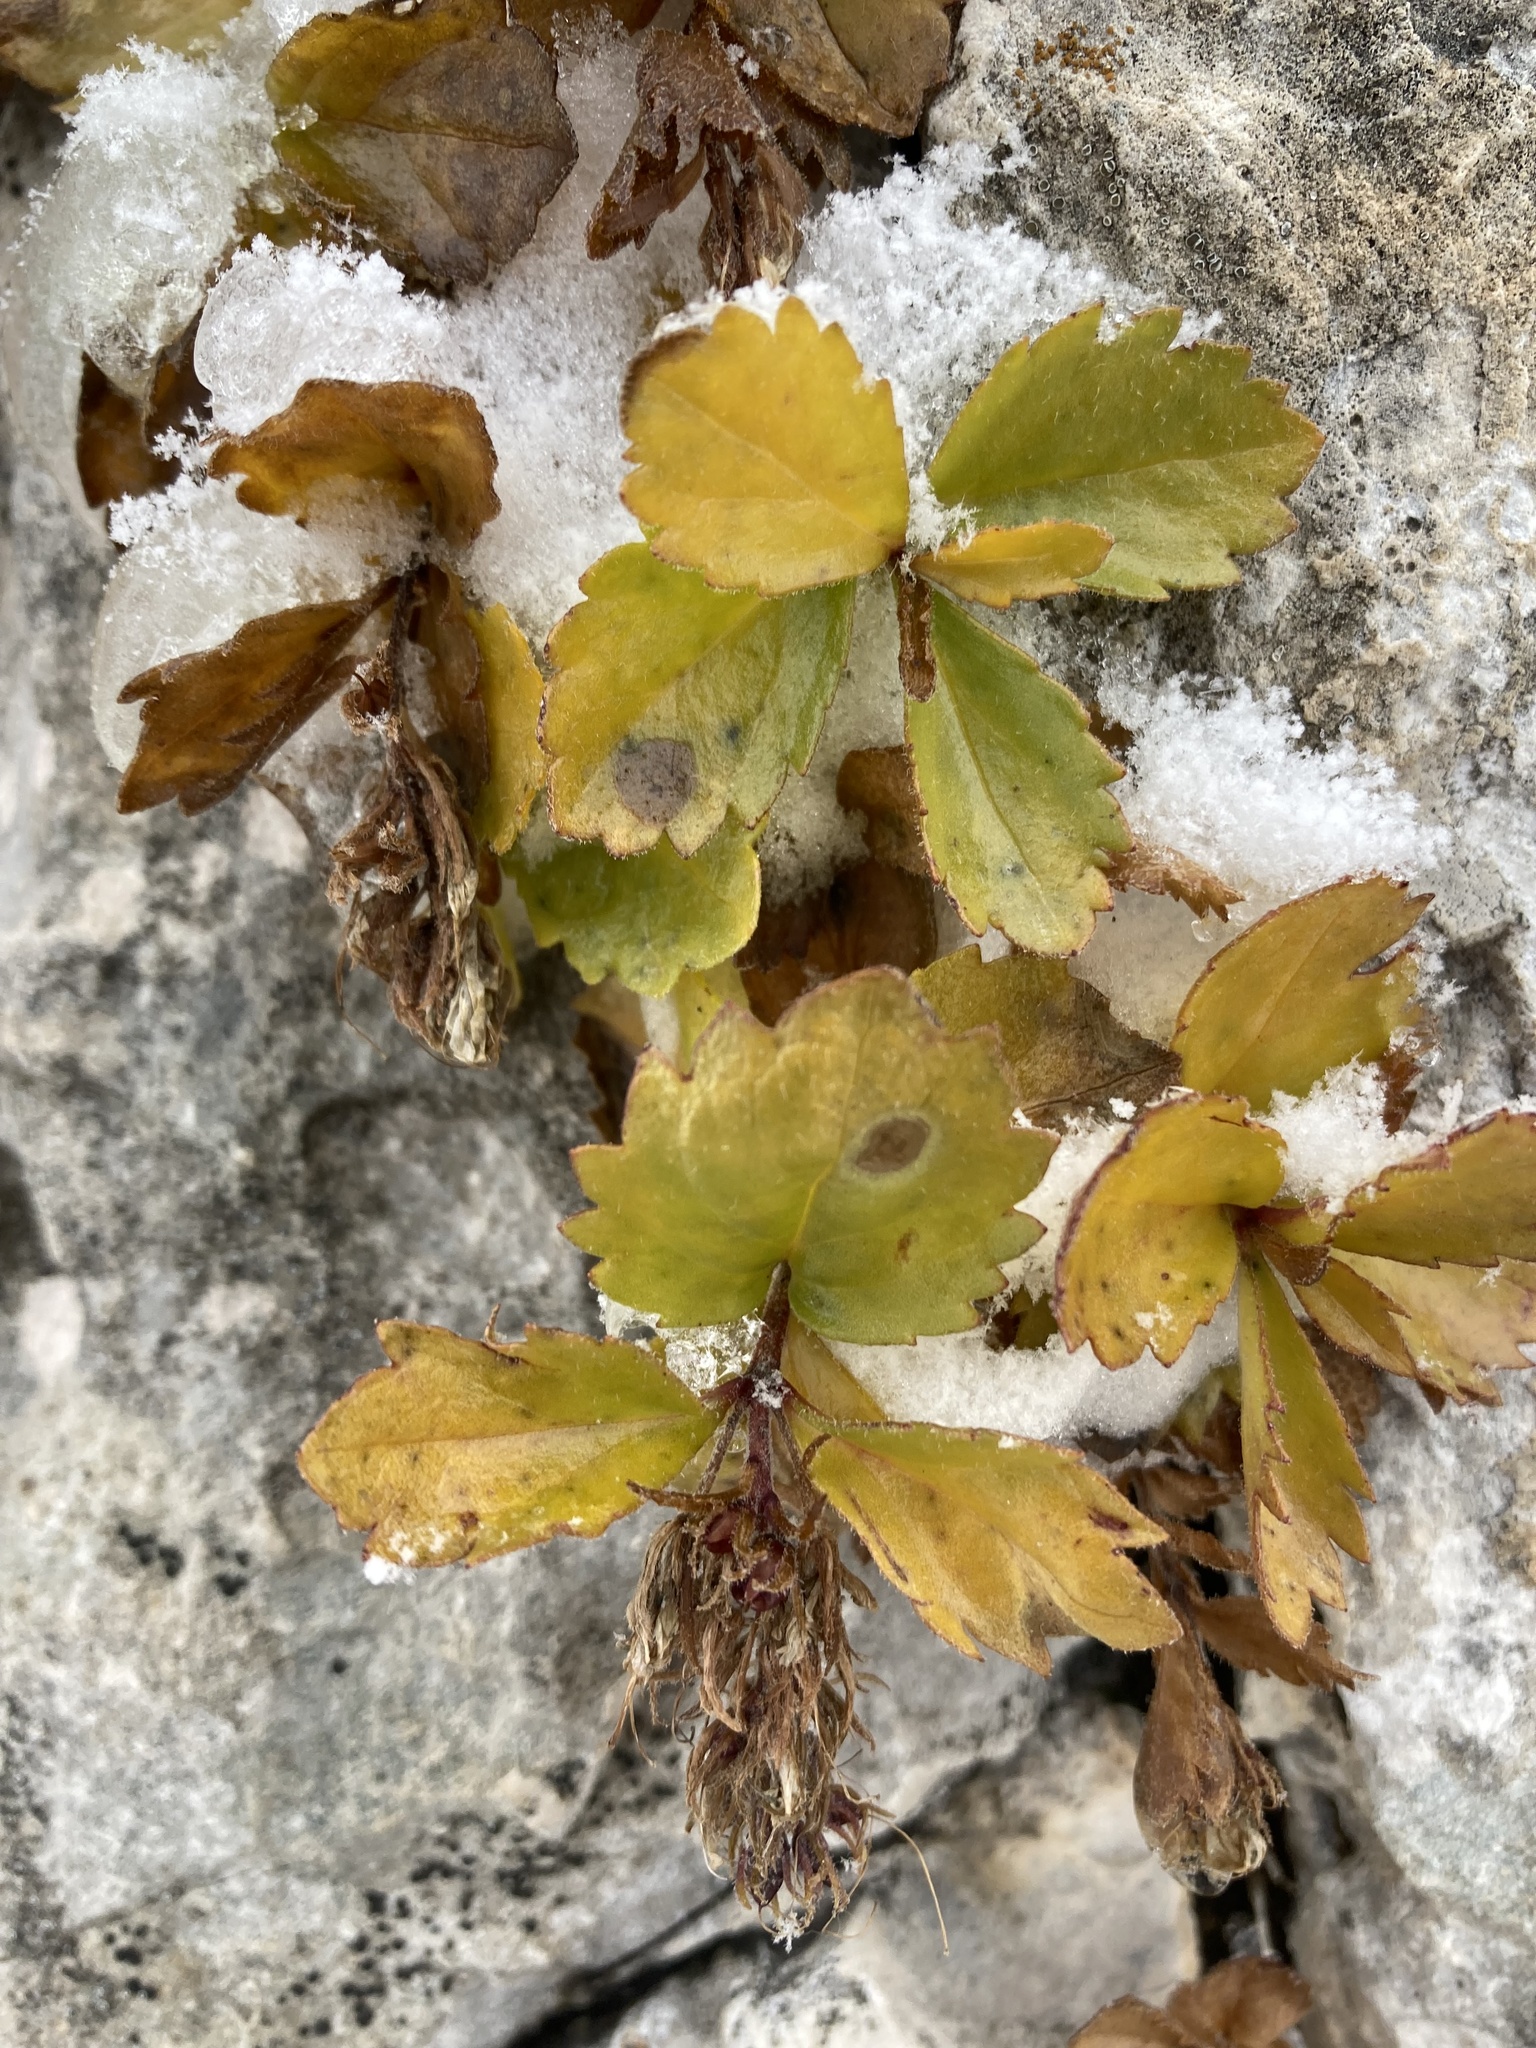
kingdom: Plantae
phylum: Tracheophyta
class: Magnoliopsida
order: Lamiales
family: Plantaginaceae
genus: Paederota
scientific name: Paederota bonarota
